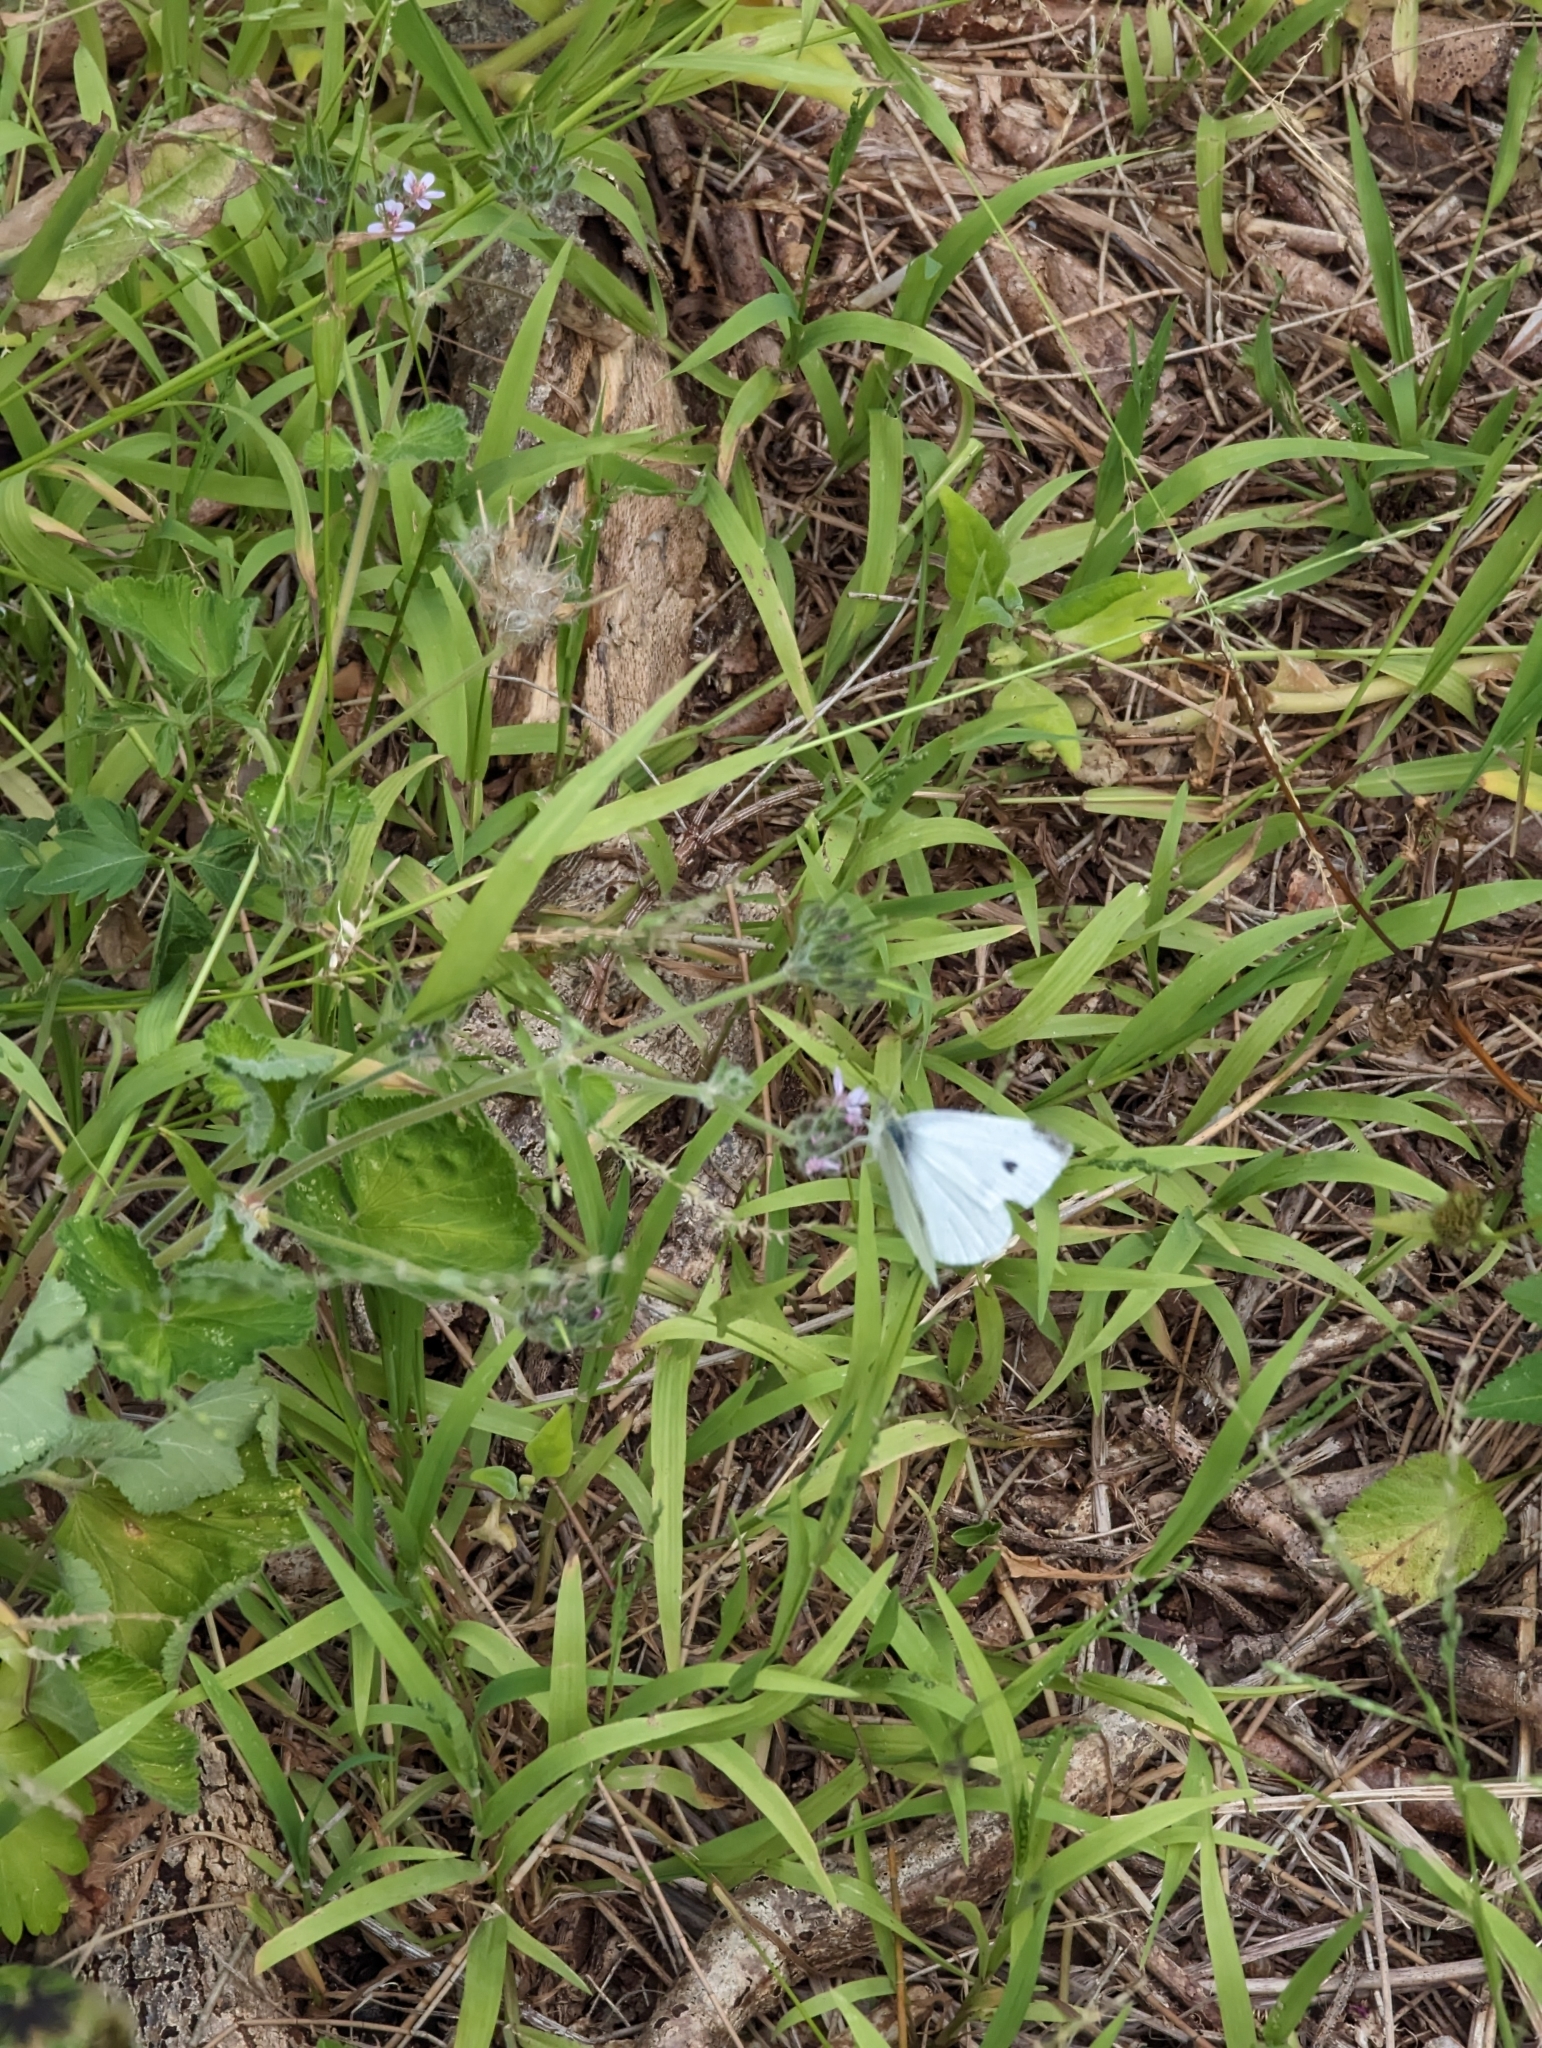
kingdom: Animalia
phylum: Arthropoda
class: Insecta
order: Lepidoptera
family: Pieridae
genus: Pieris
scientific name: Pieris rapae
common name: Small white
